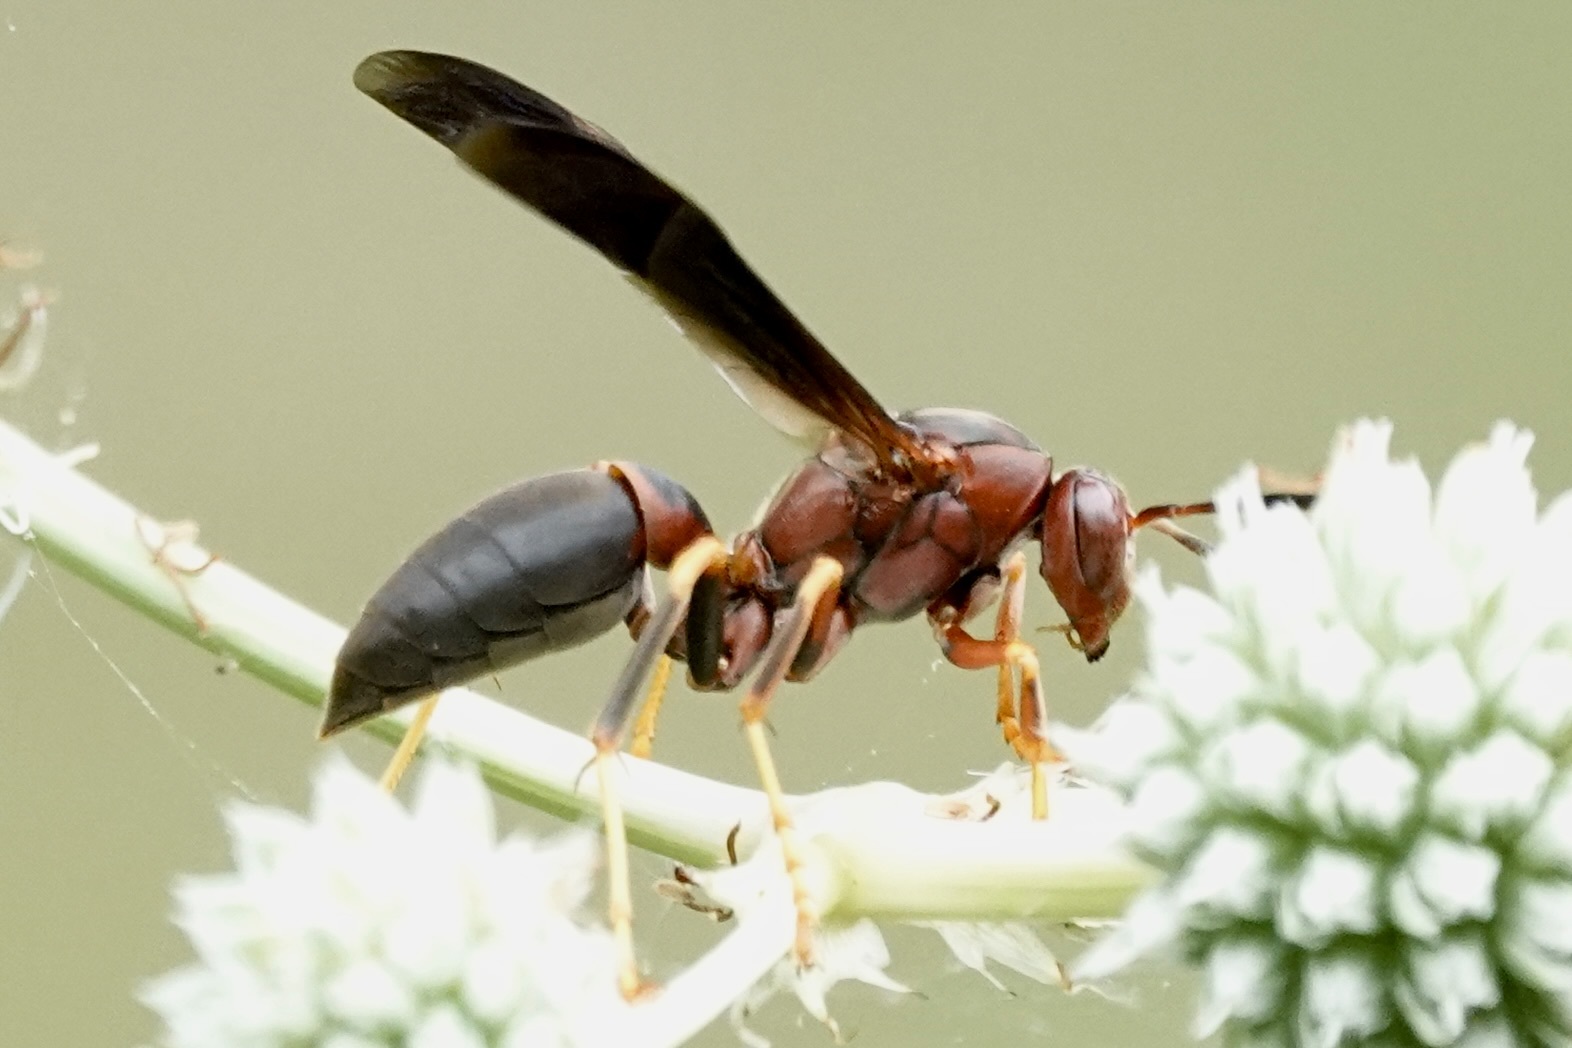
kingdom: Animalia
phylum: Arthropoda
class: Insecta
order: Hymenoptera
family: Eumenidae
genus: Polistes
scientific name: Polistes metricus
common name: Metric paper wasp
